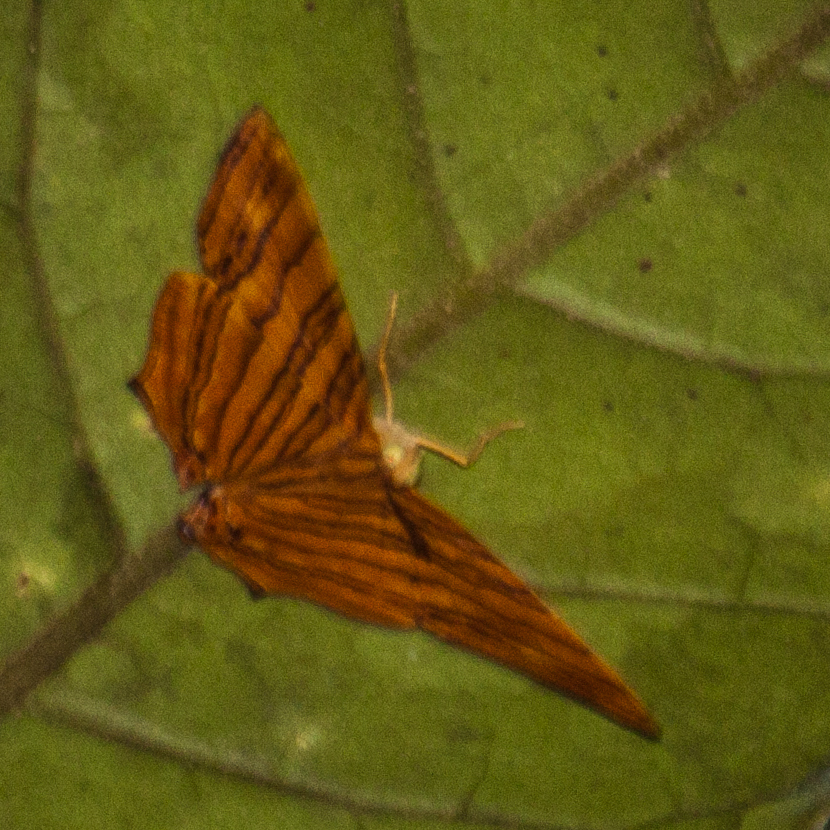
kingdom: Animalia
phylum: Arthropoda
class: Insecta
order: Lepidoptera
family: Nymphalidae
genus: Chersonesia
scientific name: Chersonesia risa
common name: Common maplet
